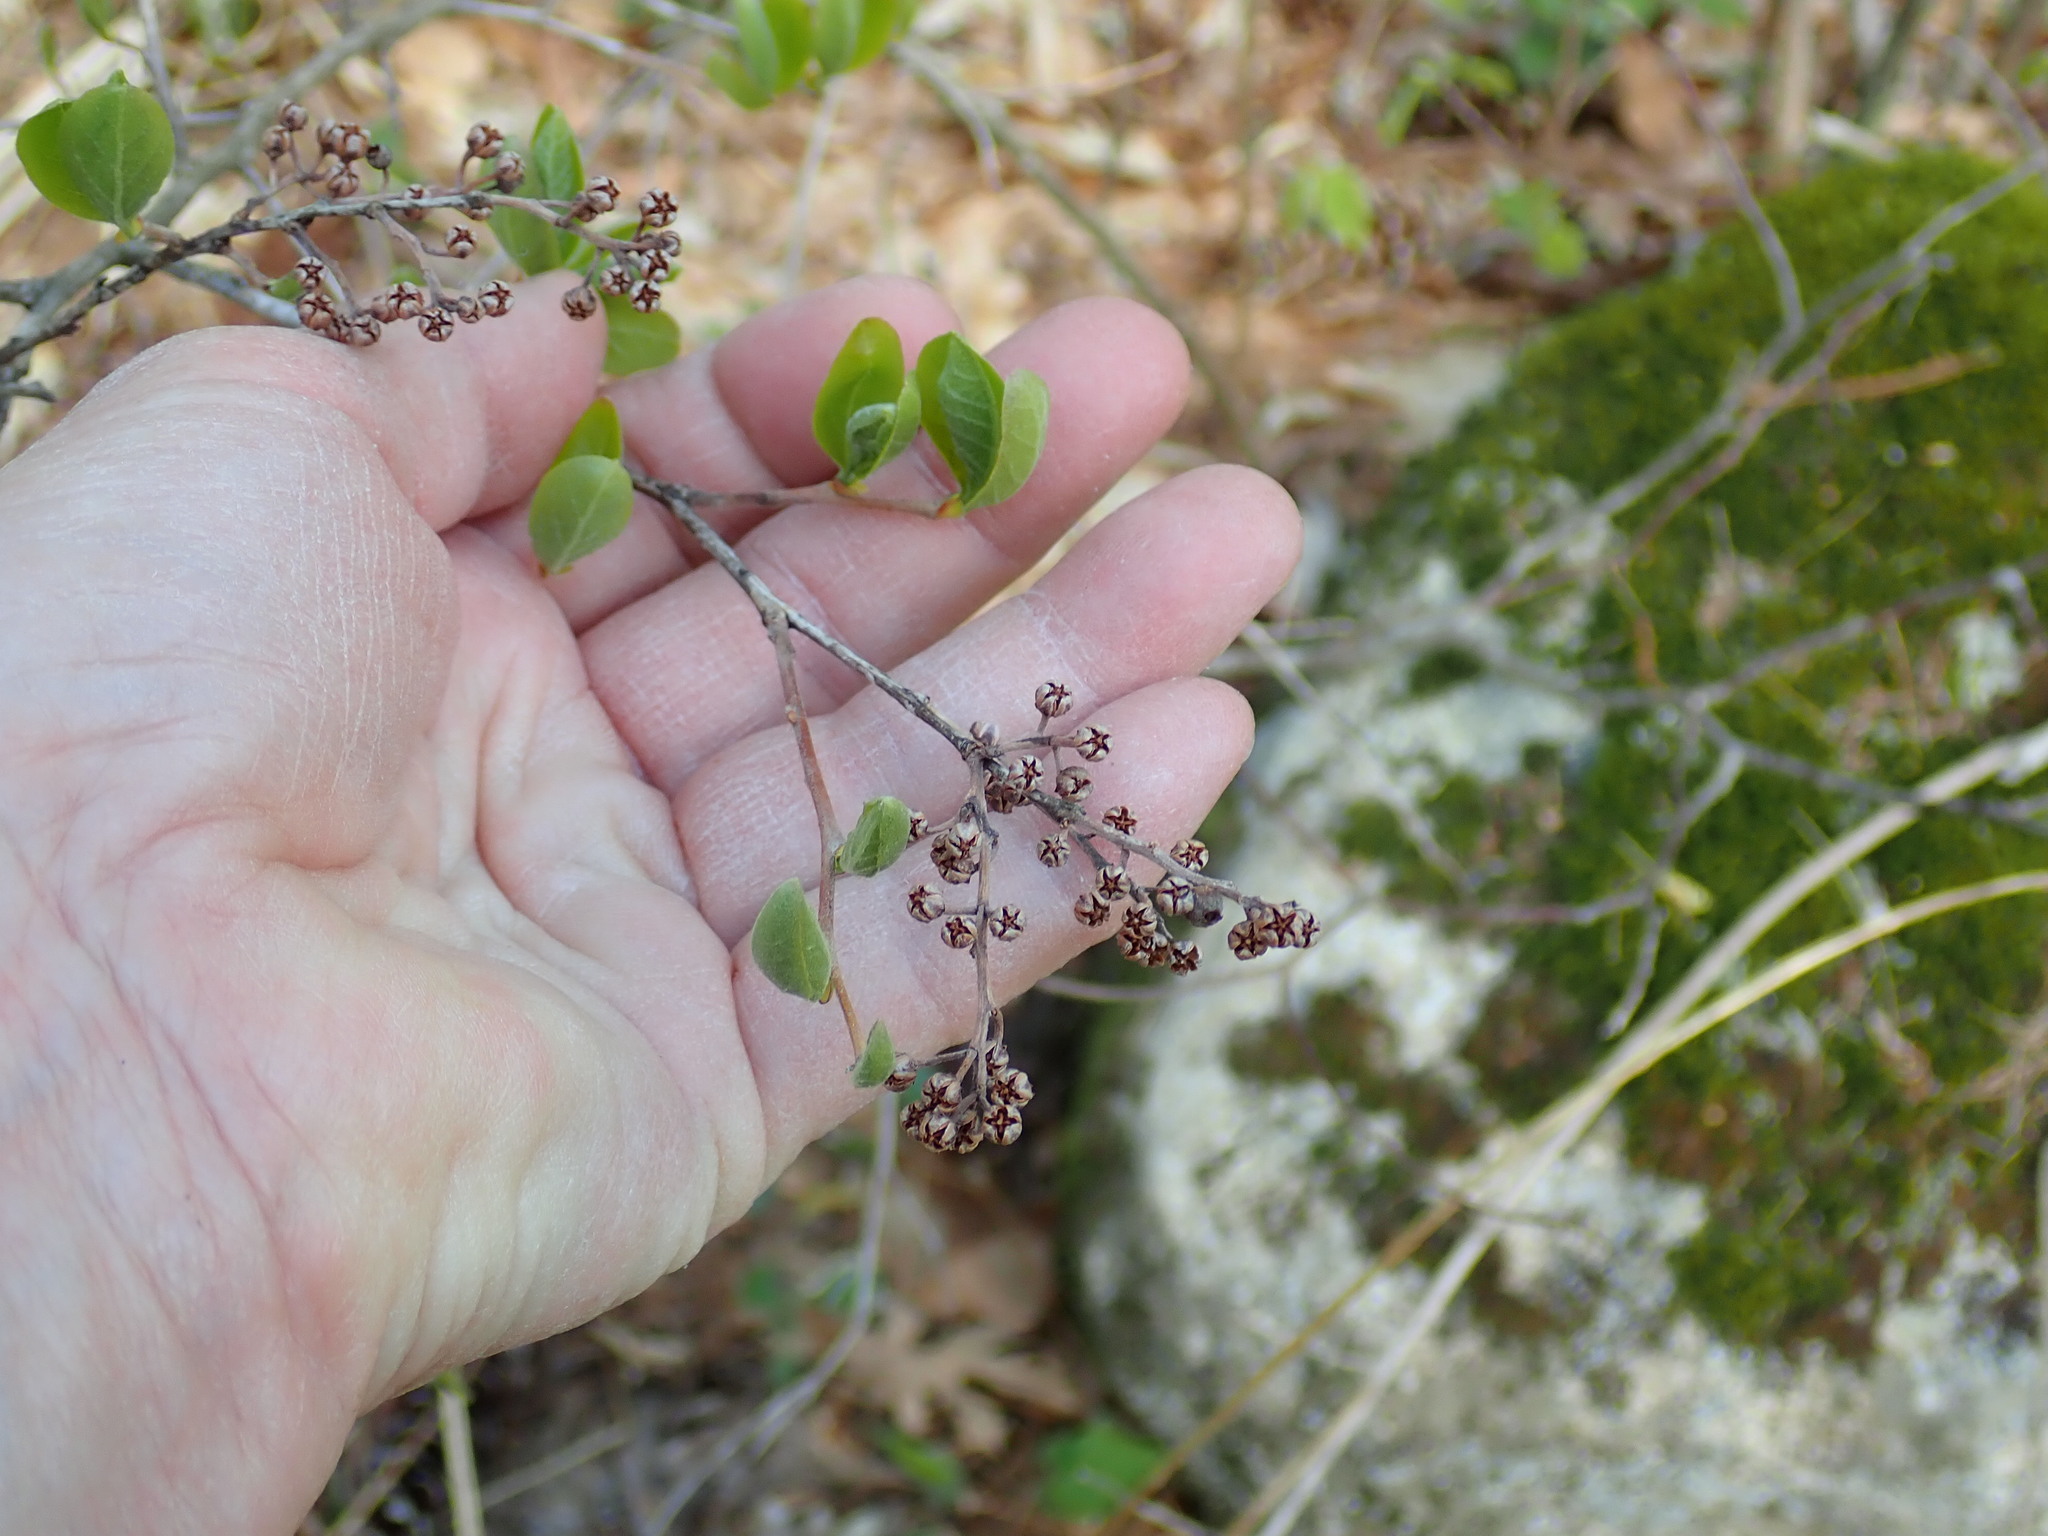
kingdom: Plantae
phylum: Tracheophyta
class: Magnoliopsida
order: Ericales
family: Ericaceae
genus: Lyonia
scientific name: Lyonia ligustrina
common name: Maleberry
